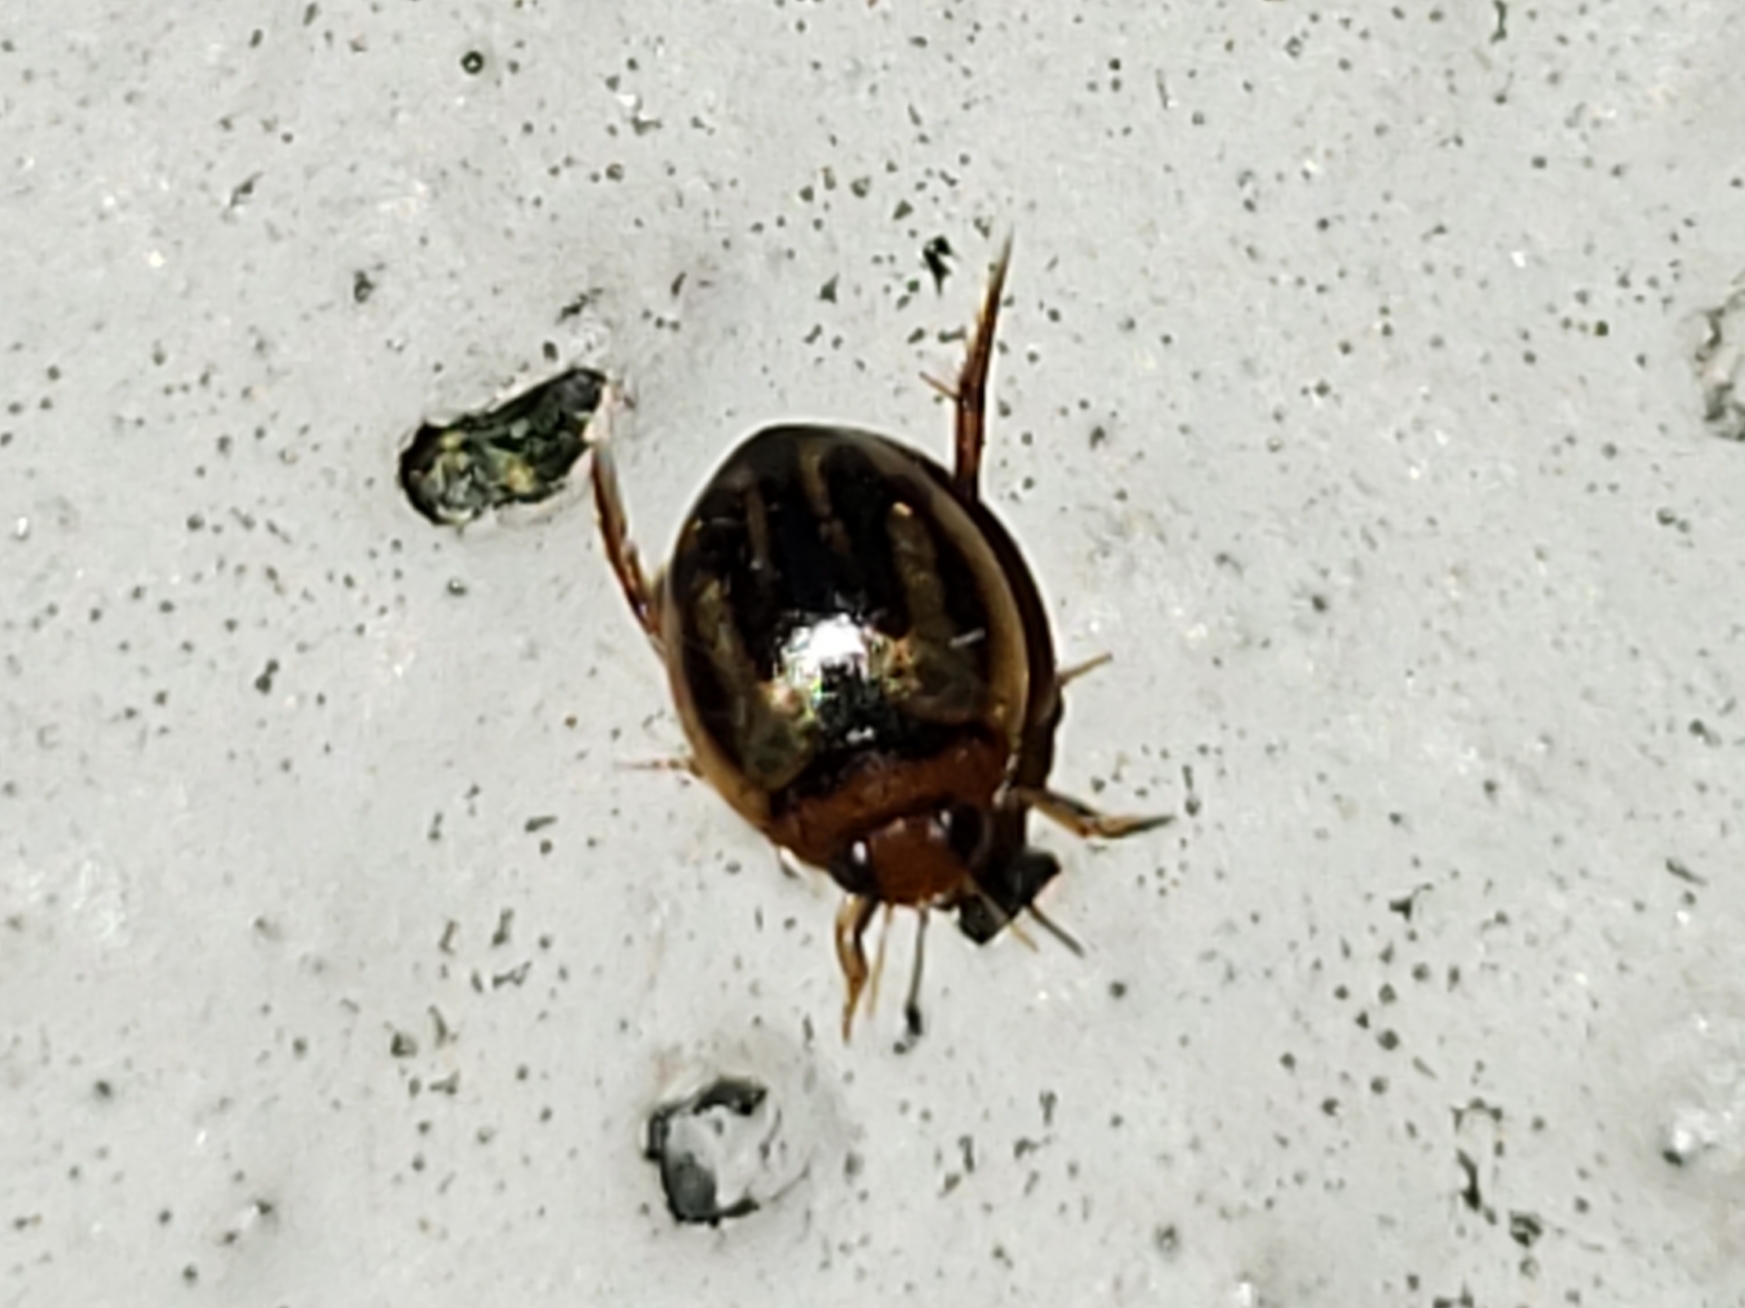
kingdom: Animalia
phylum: Arthropoda
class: Insecta
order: Coleoptera
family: Dytiscidae
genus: Desmopachria
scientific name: Desmopachria seminola
